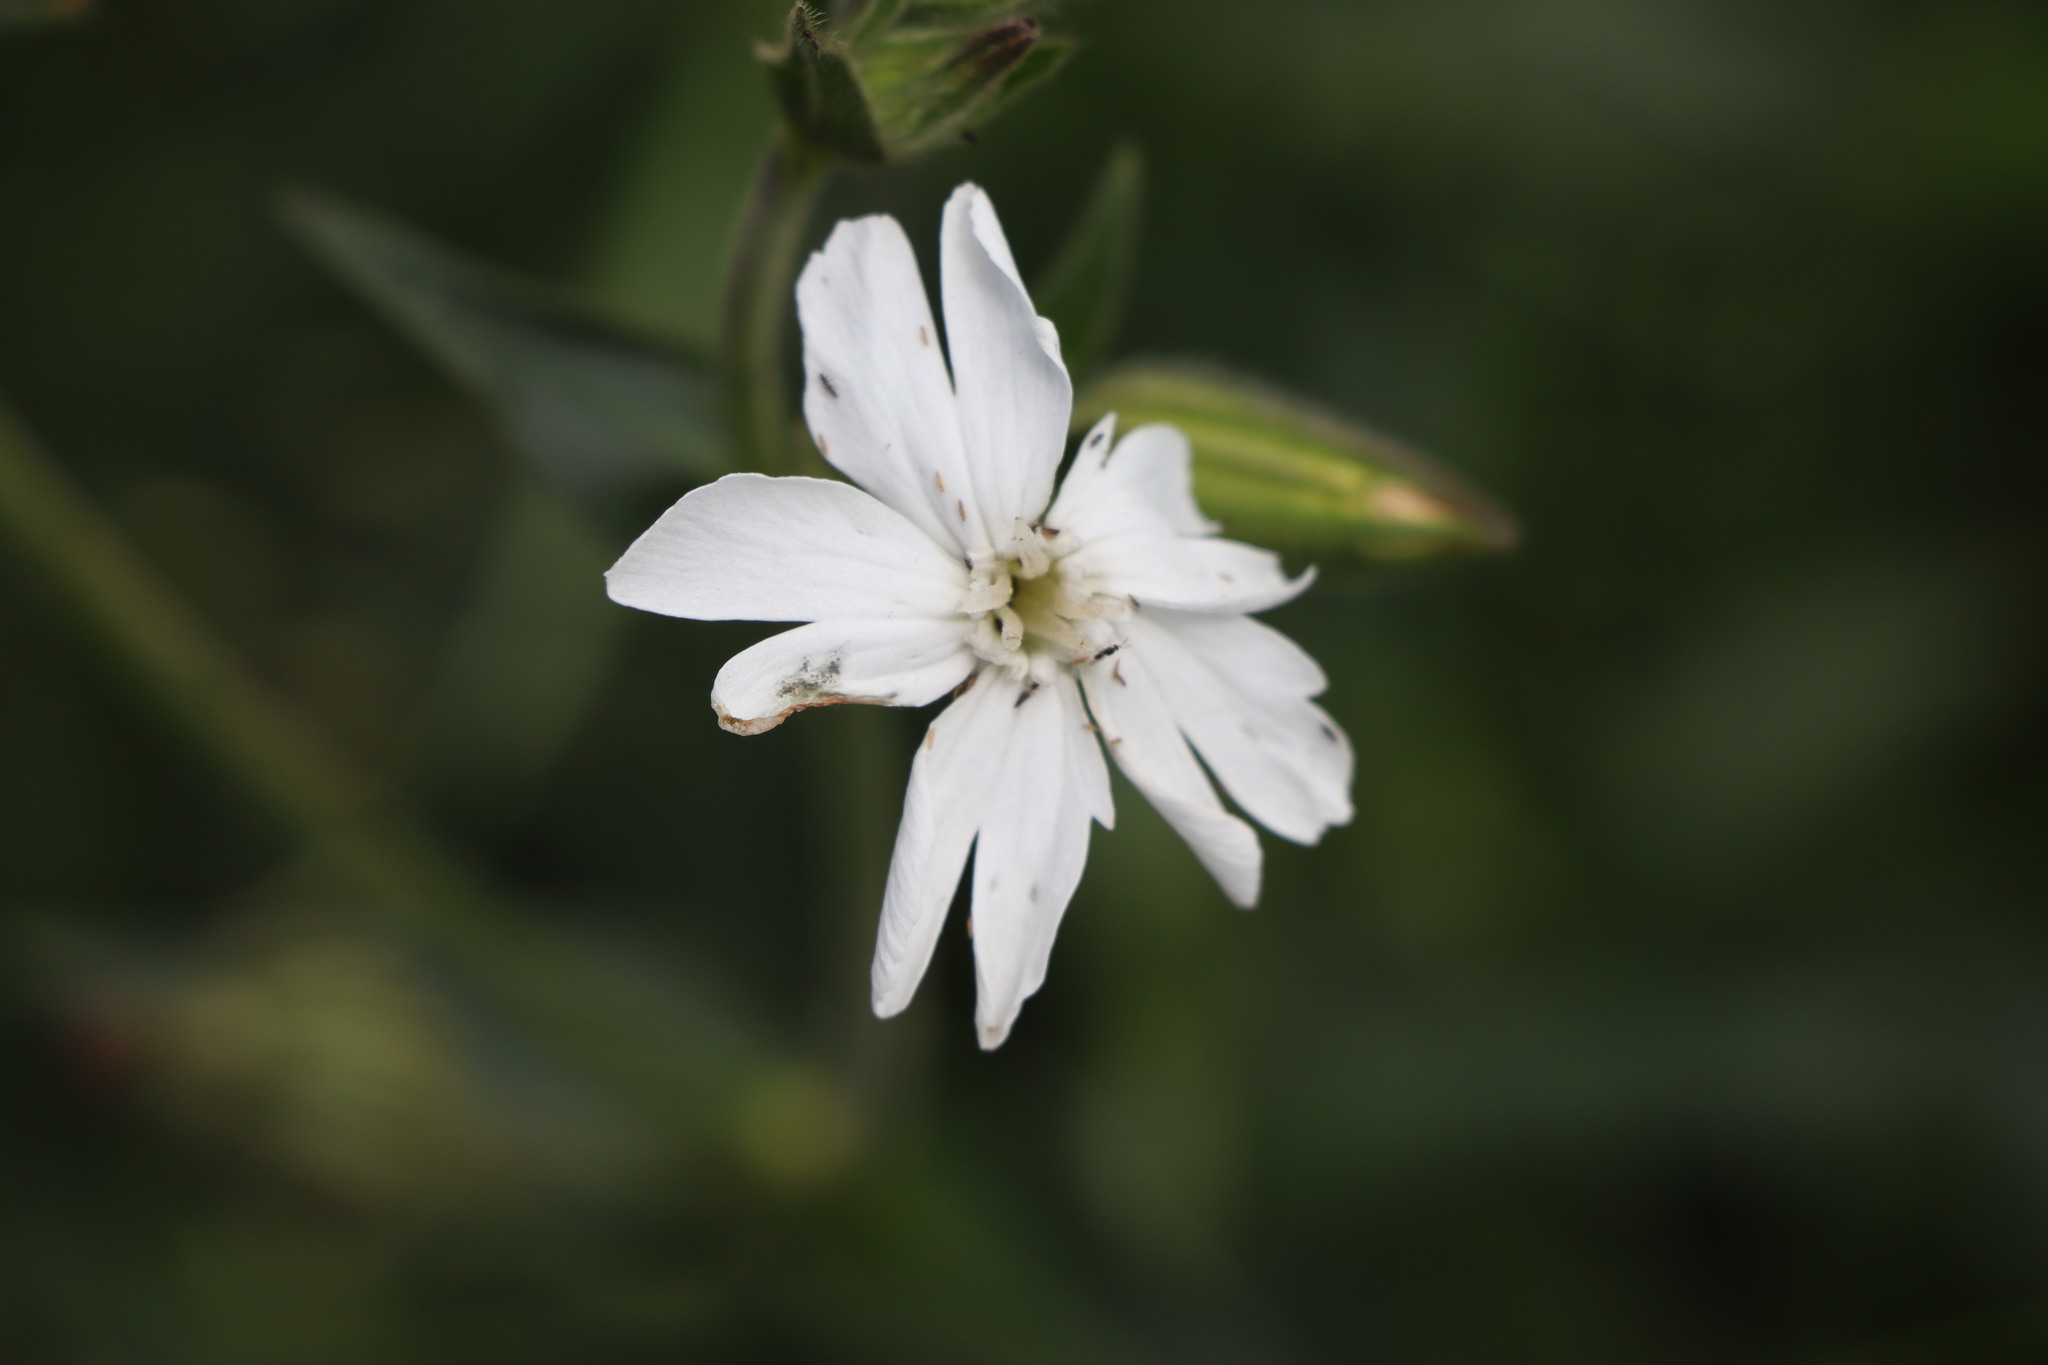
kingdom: Plantae
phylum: Tracheophyta
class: Magnoliopsida
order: Caryophyllales
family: Caryophyllaceae
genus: Silene
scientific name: Silene latifolia
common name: White campion
